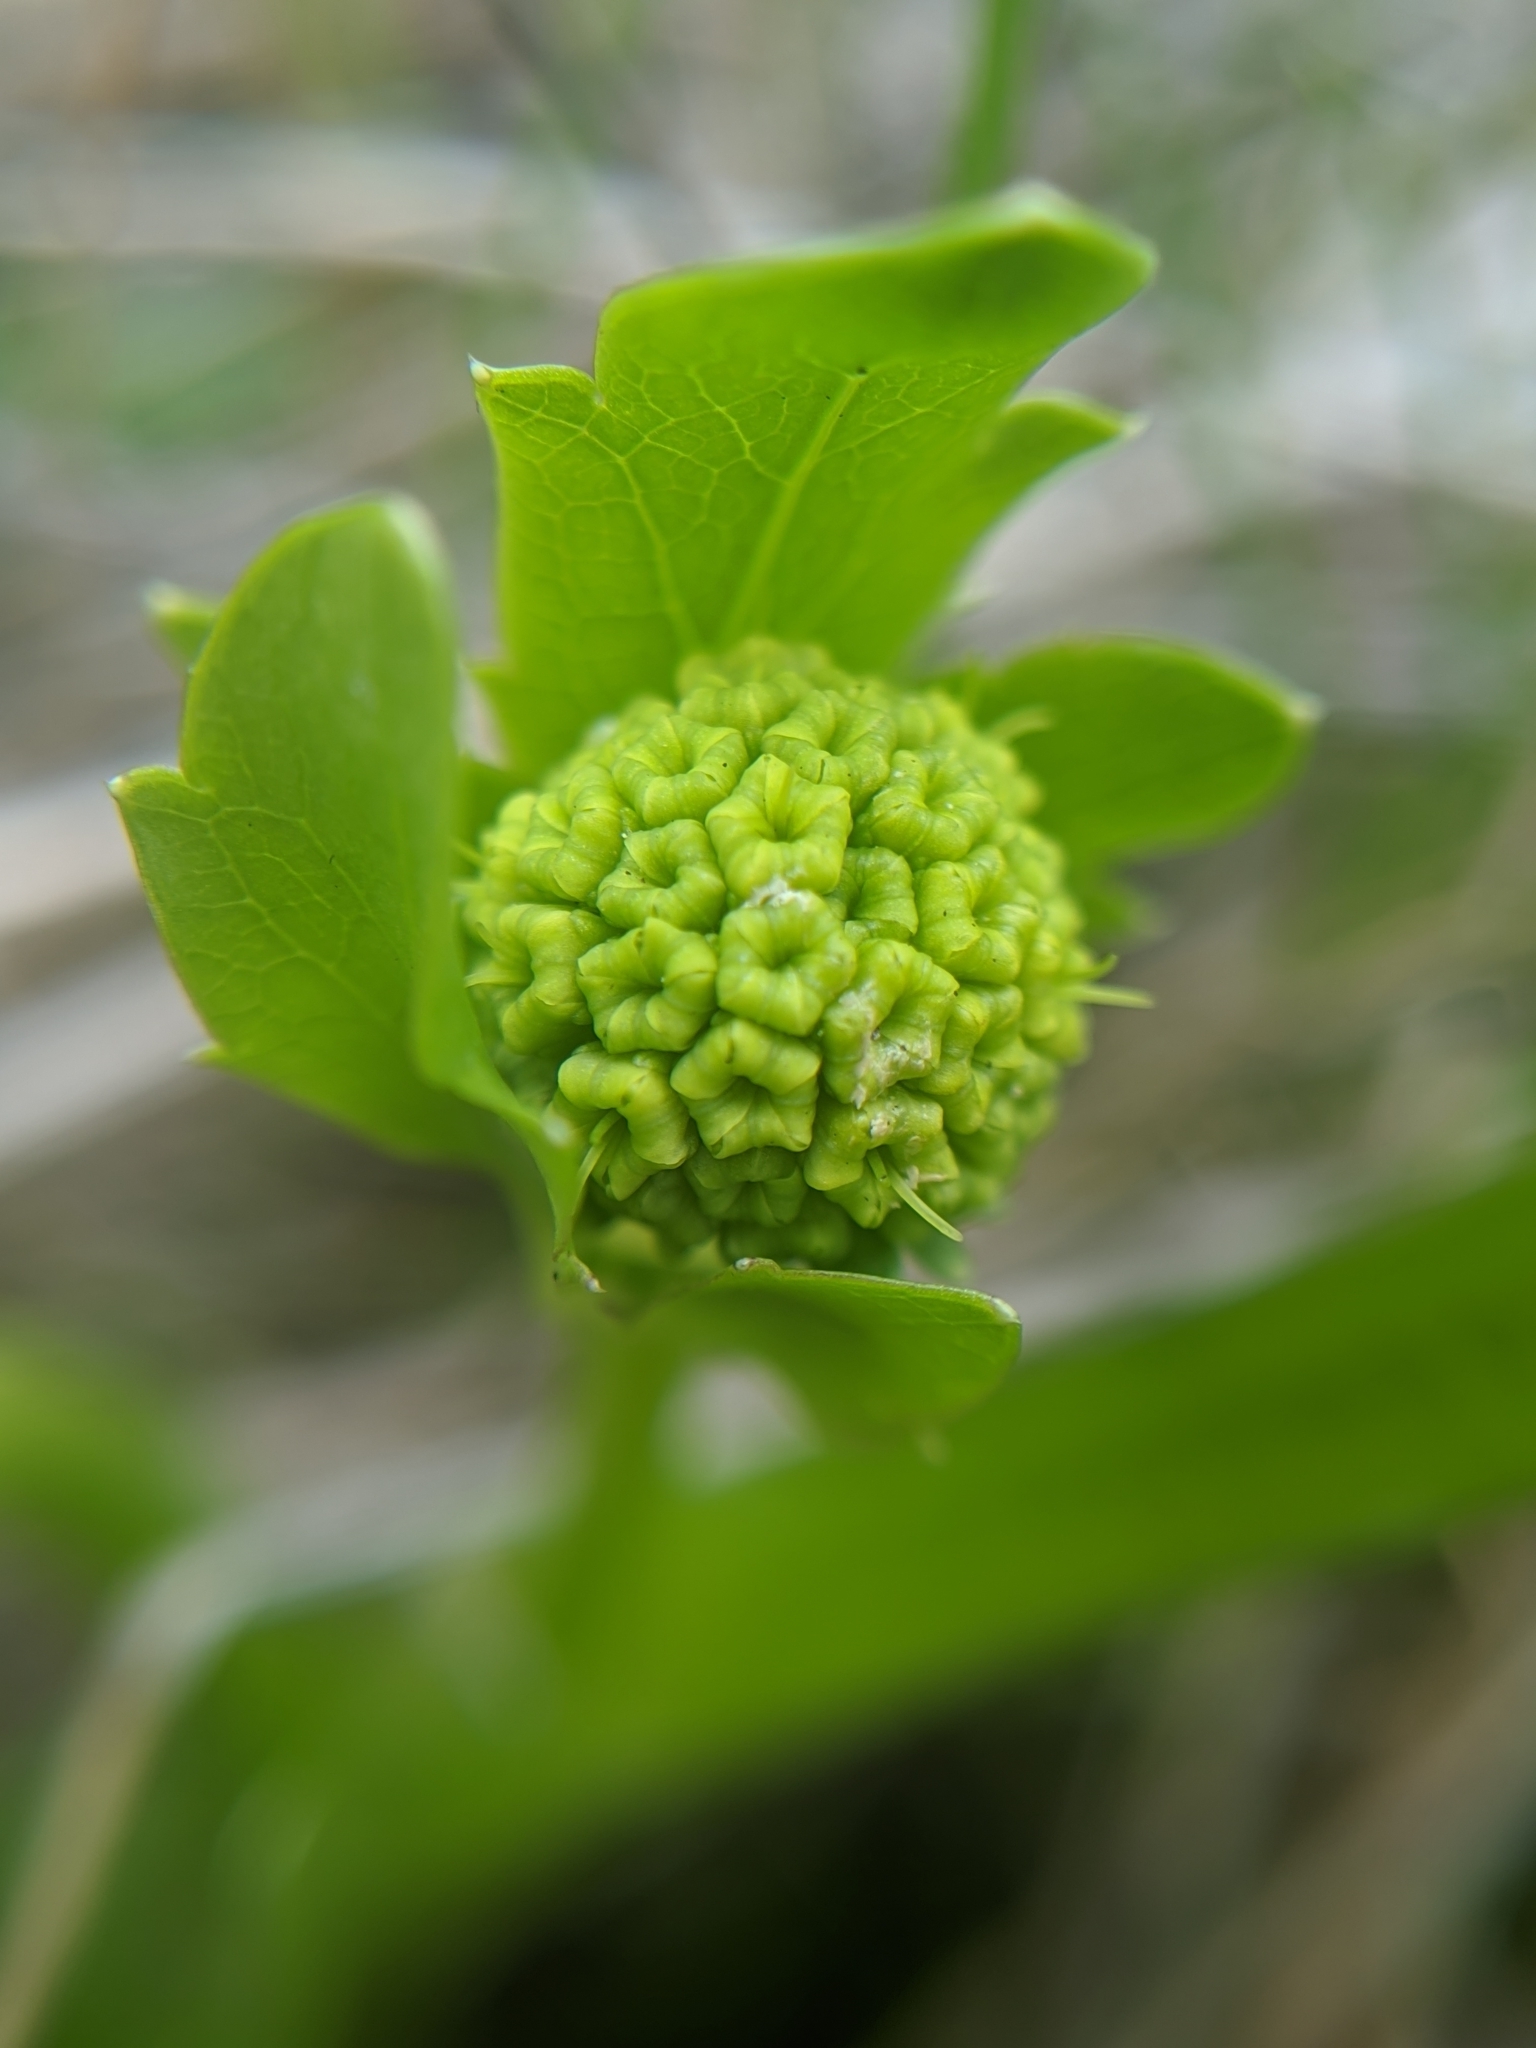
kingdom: Plantae
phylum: Tracheophyta
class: Magnoliopsida
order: Apiales
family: Apiaceae
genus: Sanicula
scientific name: Sanicula maritima
